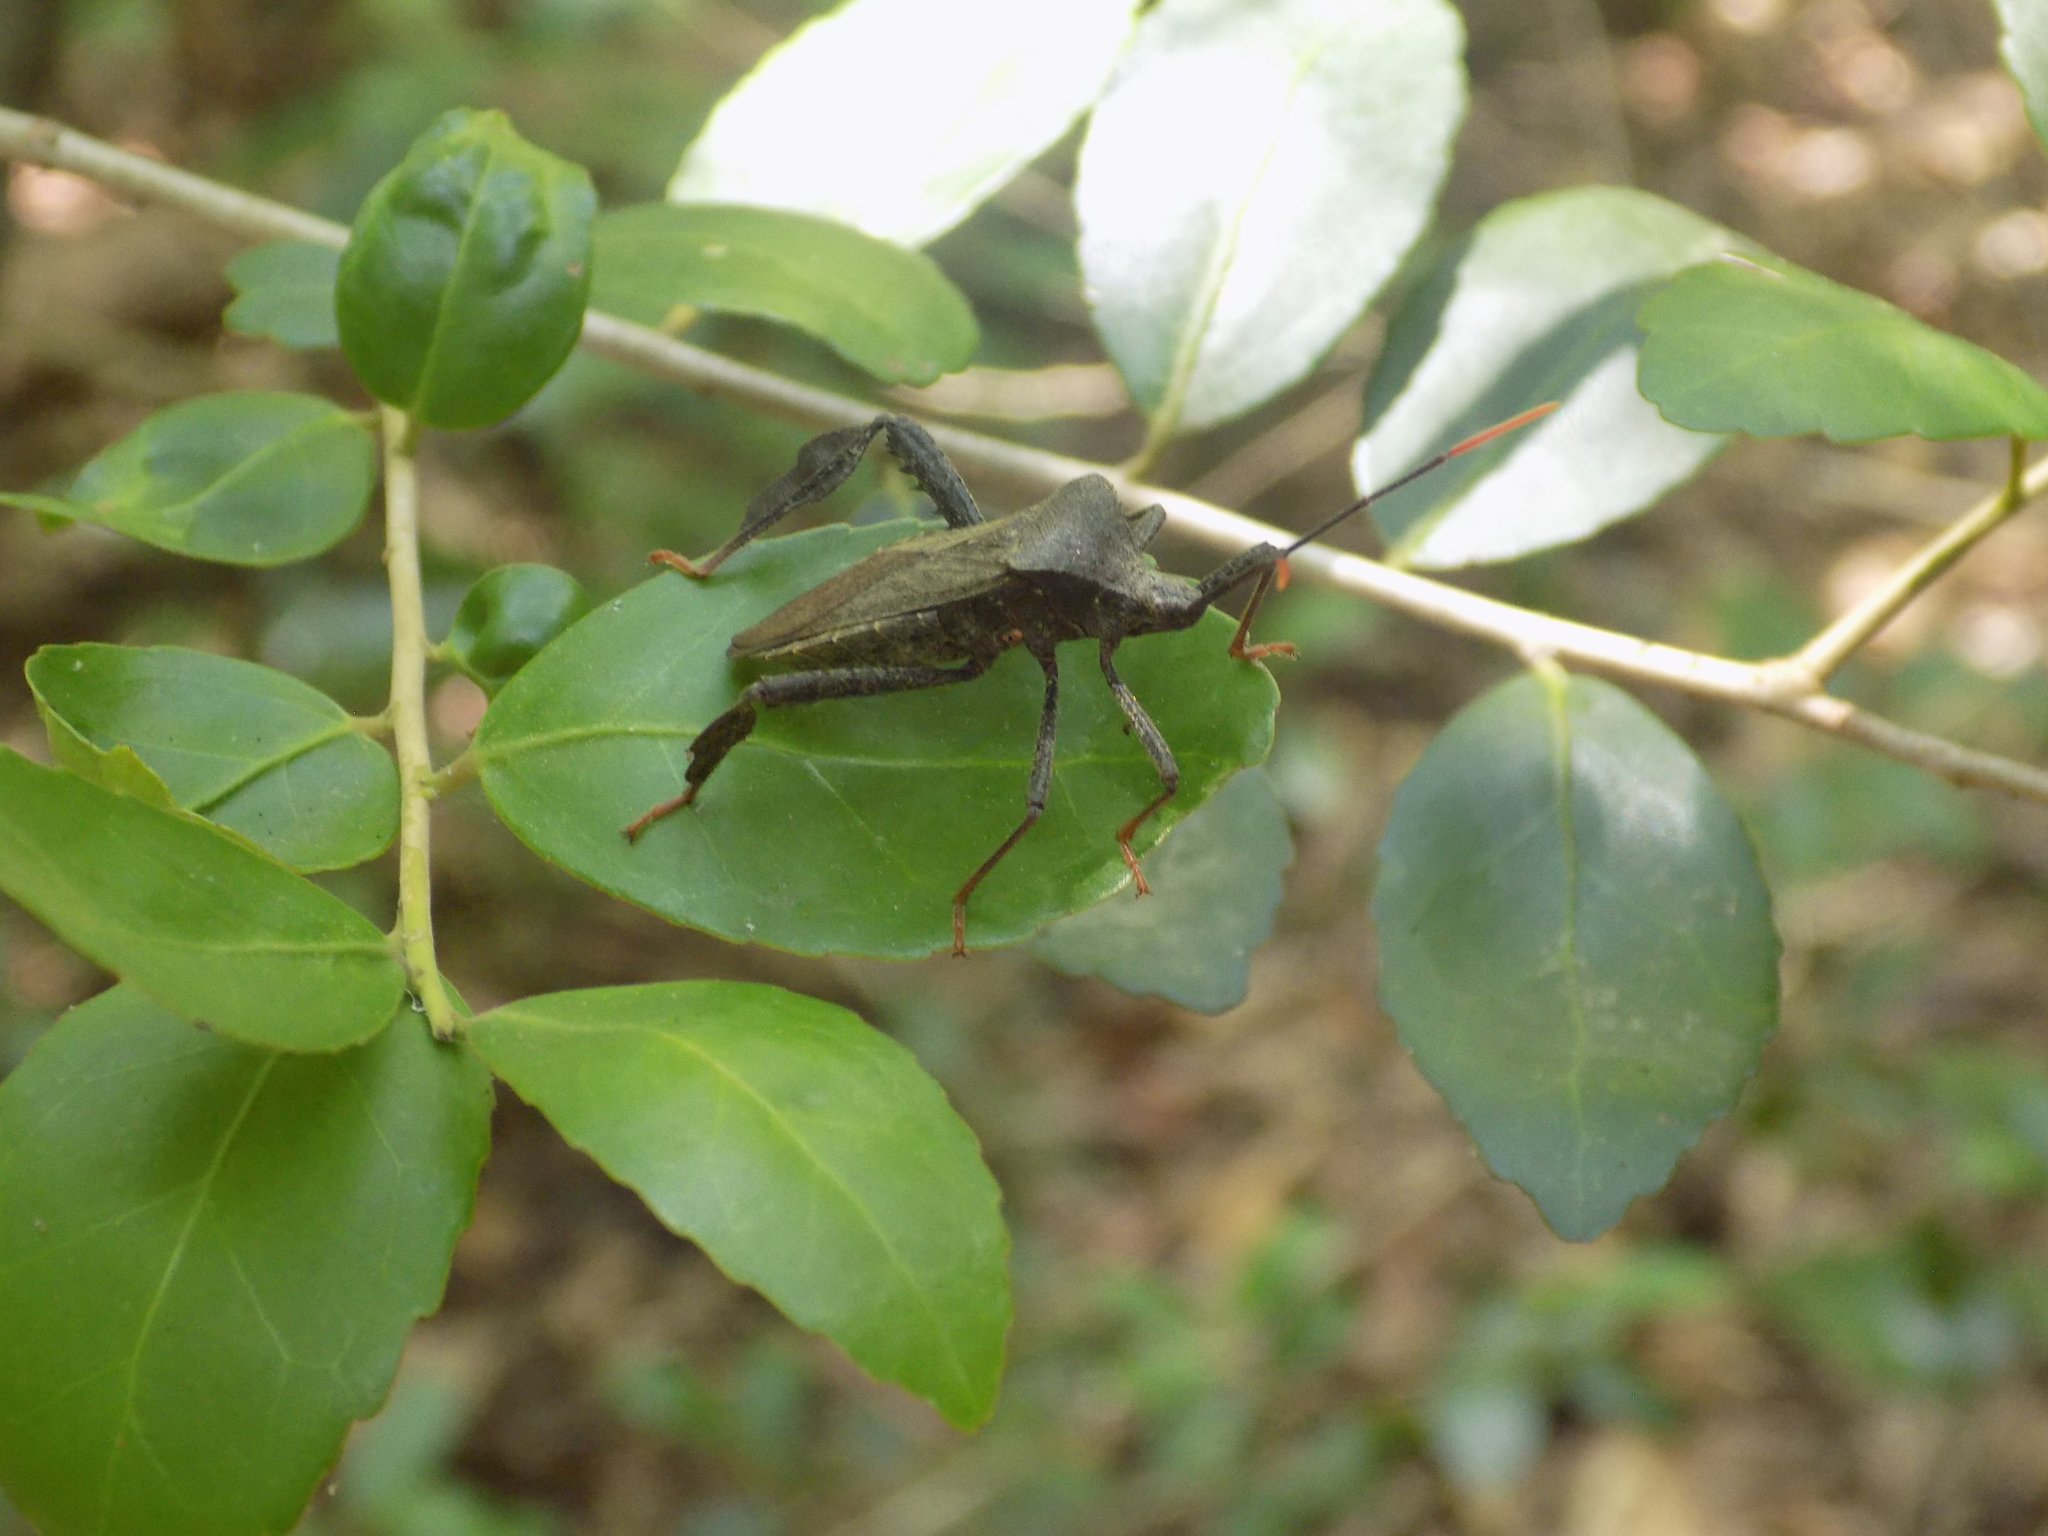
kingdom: Animalia
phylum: Arthropoda
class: Insecta
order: Hemiptera
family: Coreidae
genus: Acanthocephala
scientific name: Acanthocephala terminalis
